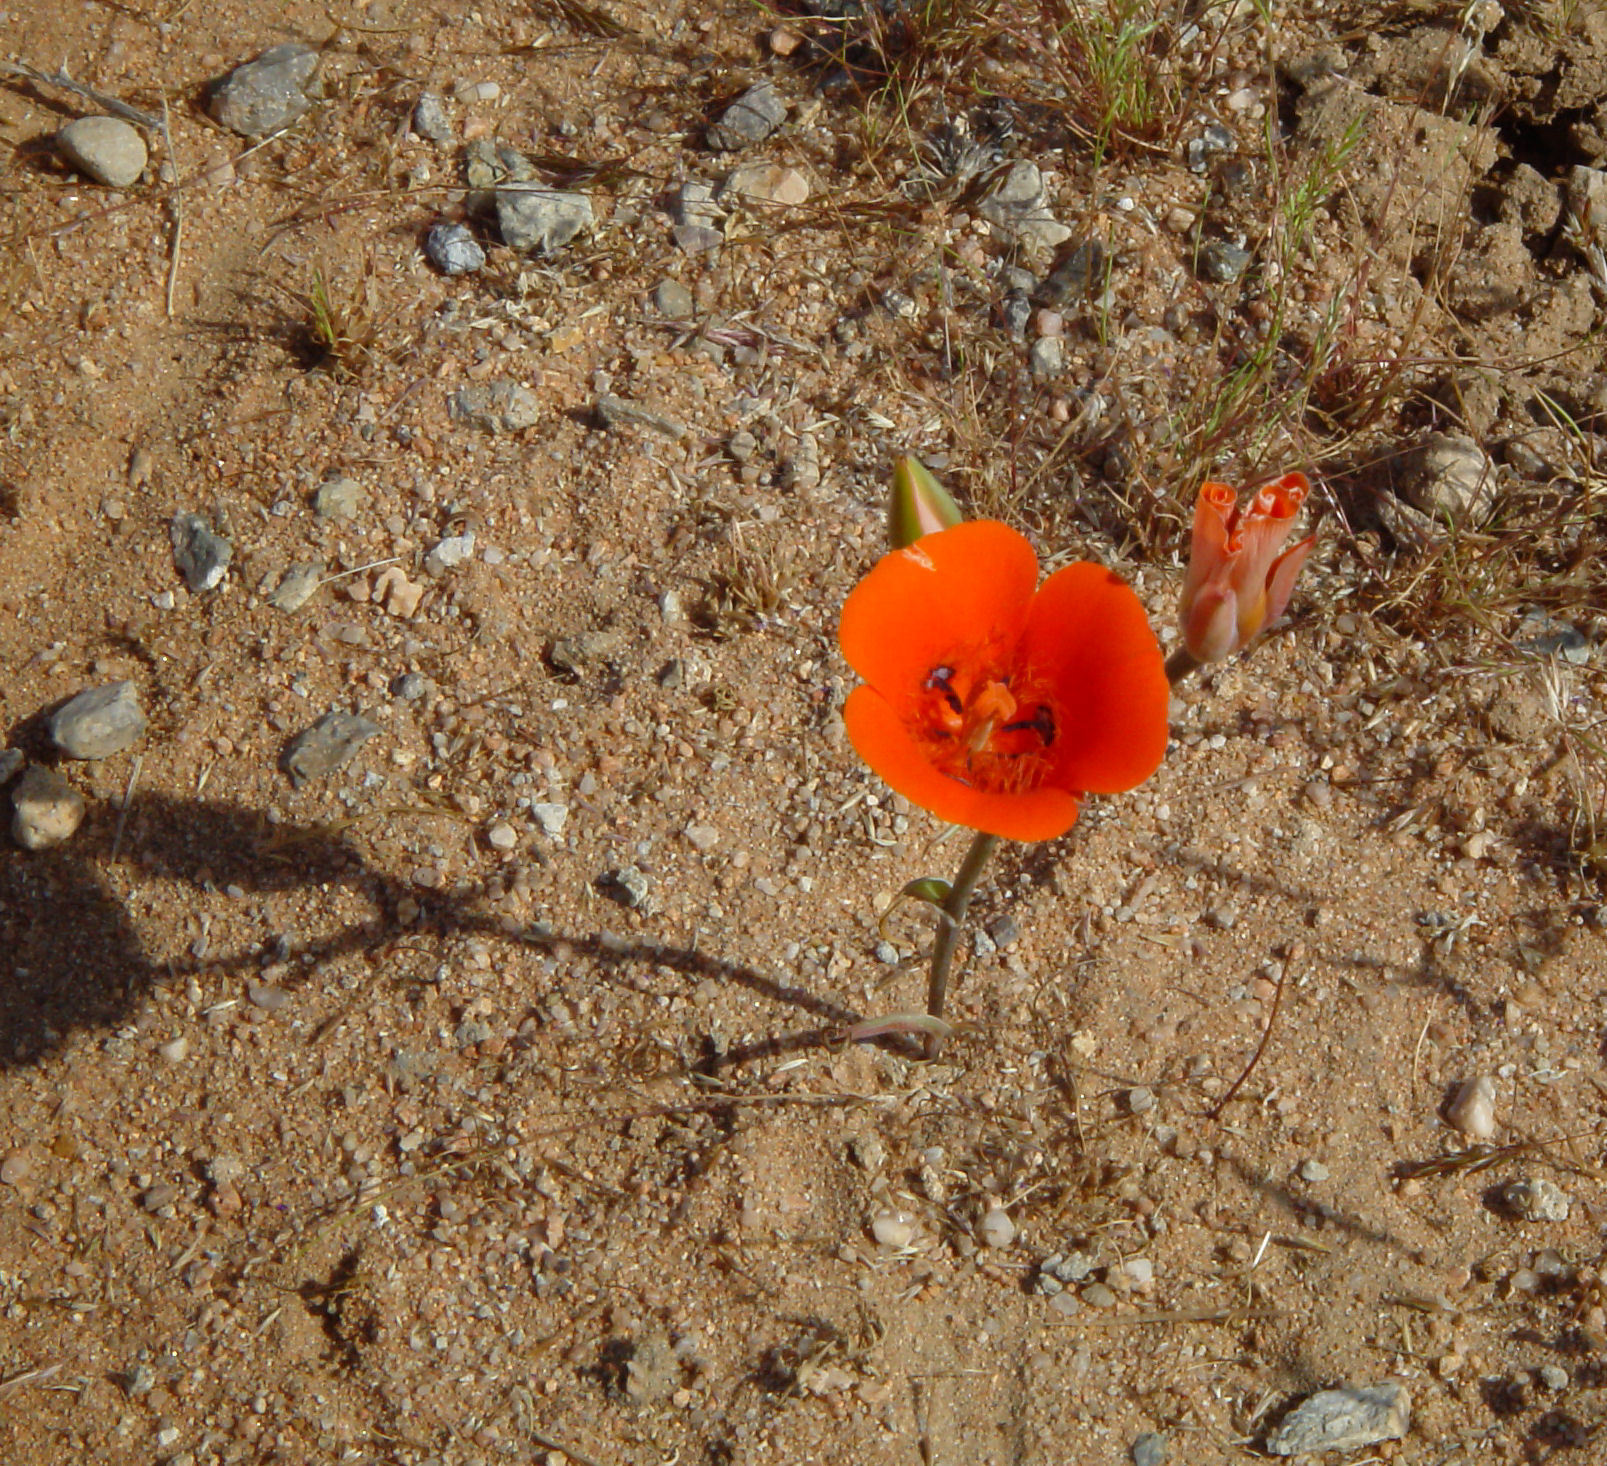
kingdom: Plantae
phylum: Tracheophyta
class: Liliopsida
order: Liliales
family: Liliaceae
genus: Calochortus
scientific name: Calochortus kennedyi
